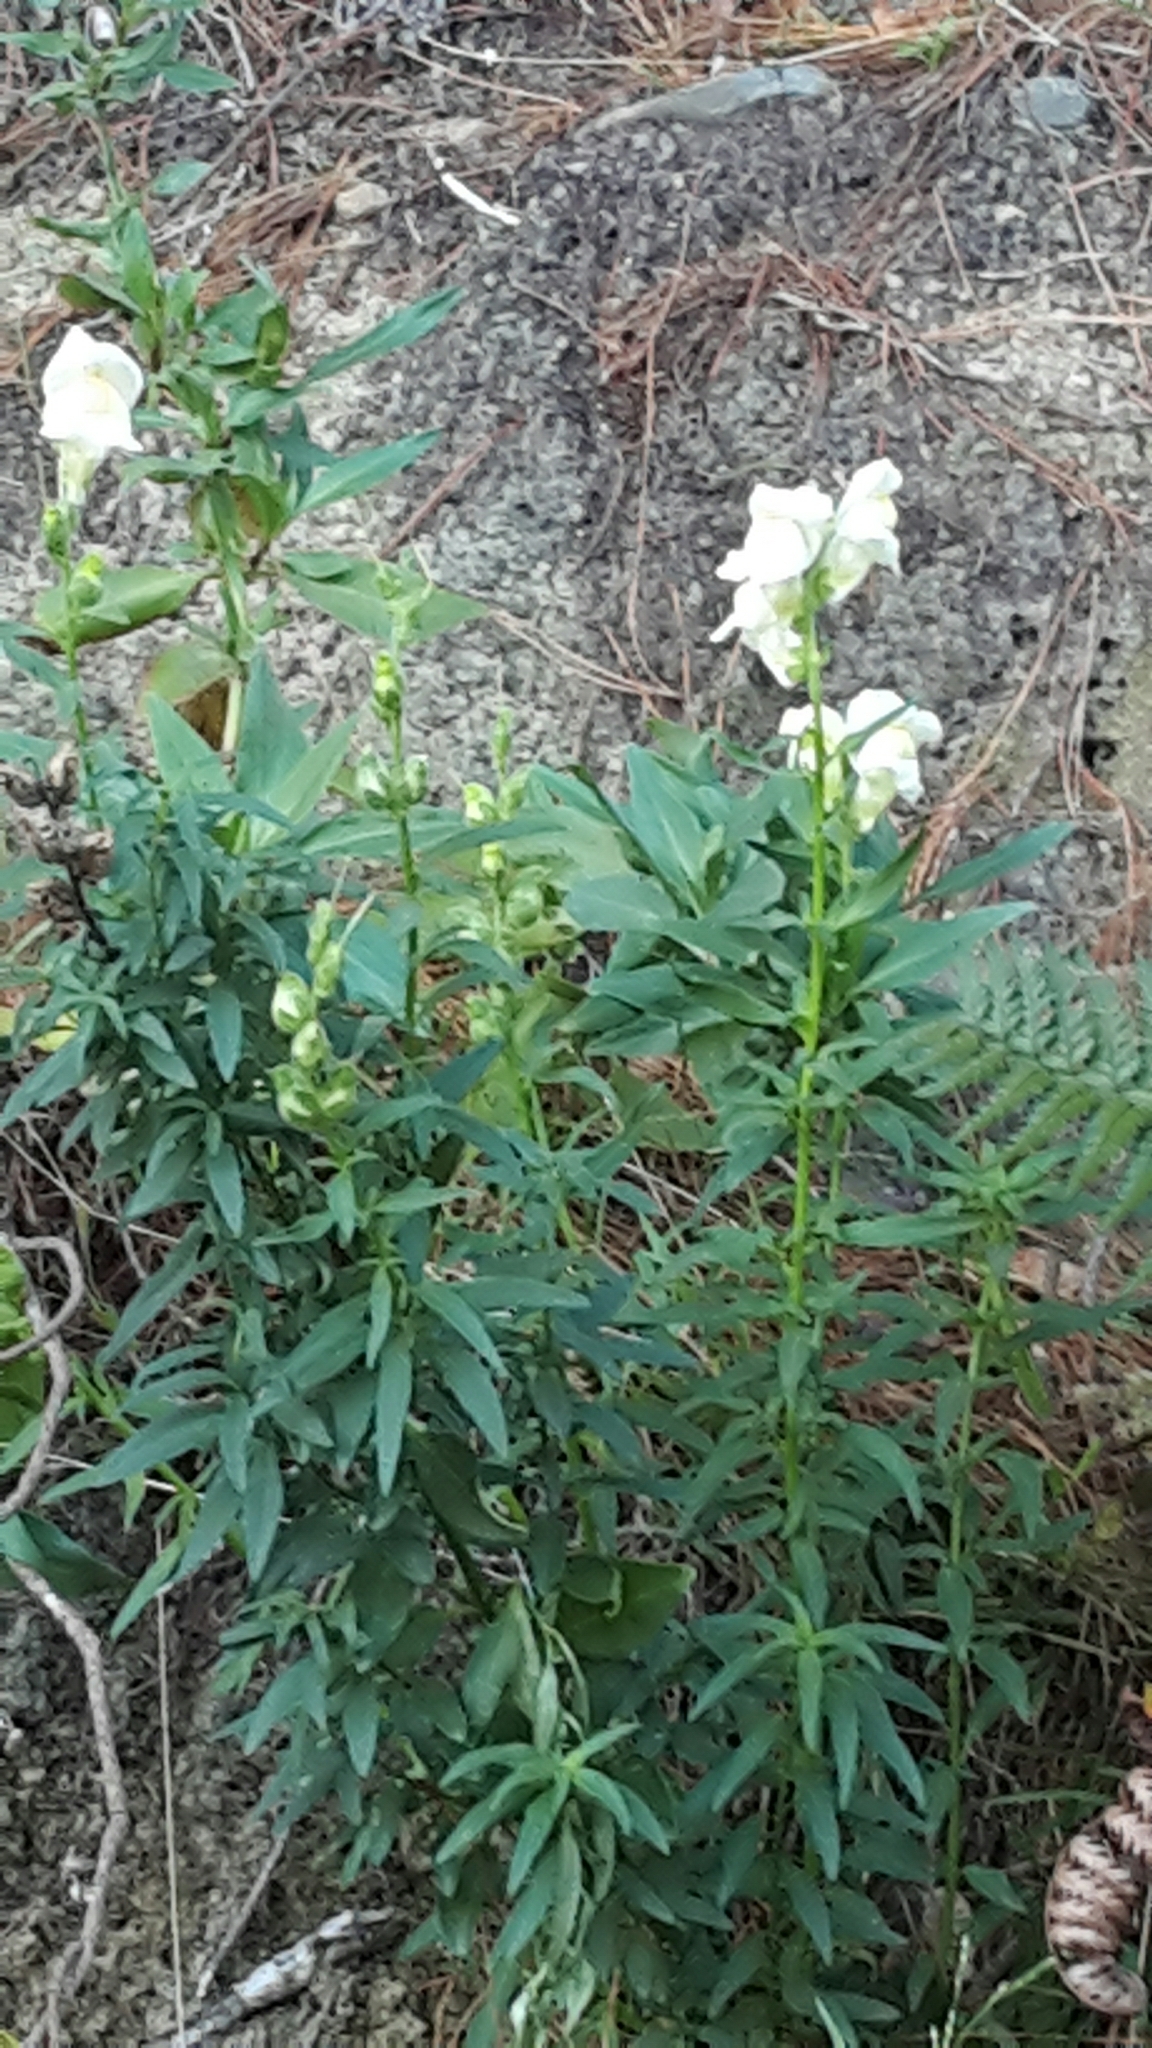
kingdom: Plantae
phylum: Tracheophyta
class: Magnoliopsida
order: Lamiales
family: Plantaginaceae
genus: Antirrhinum
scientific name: Antirrhinum majus
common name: Snapdragon
